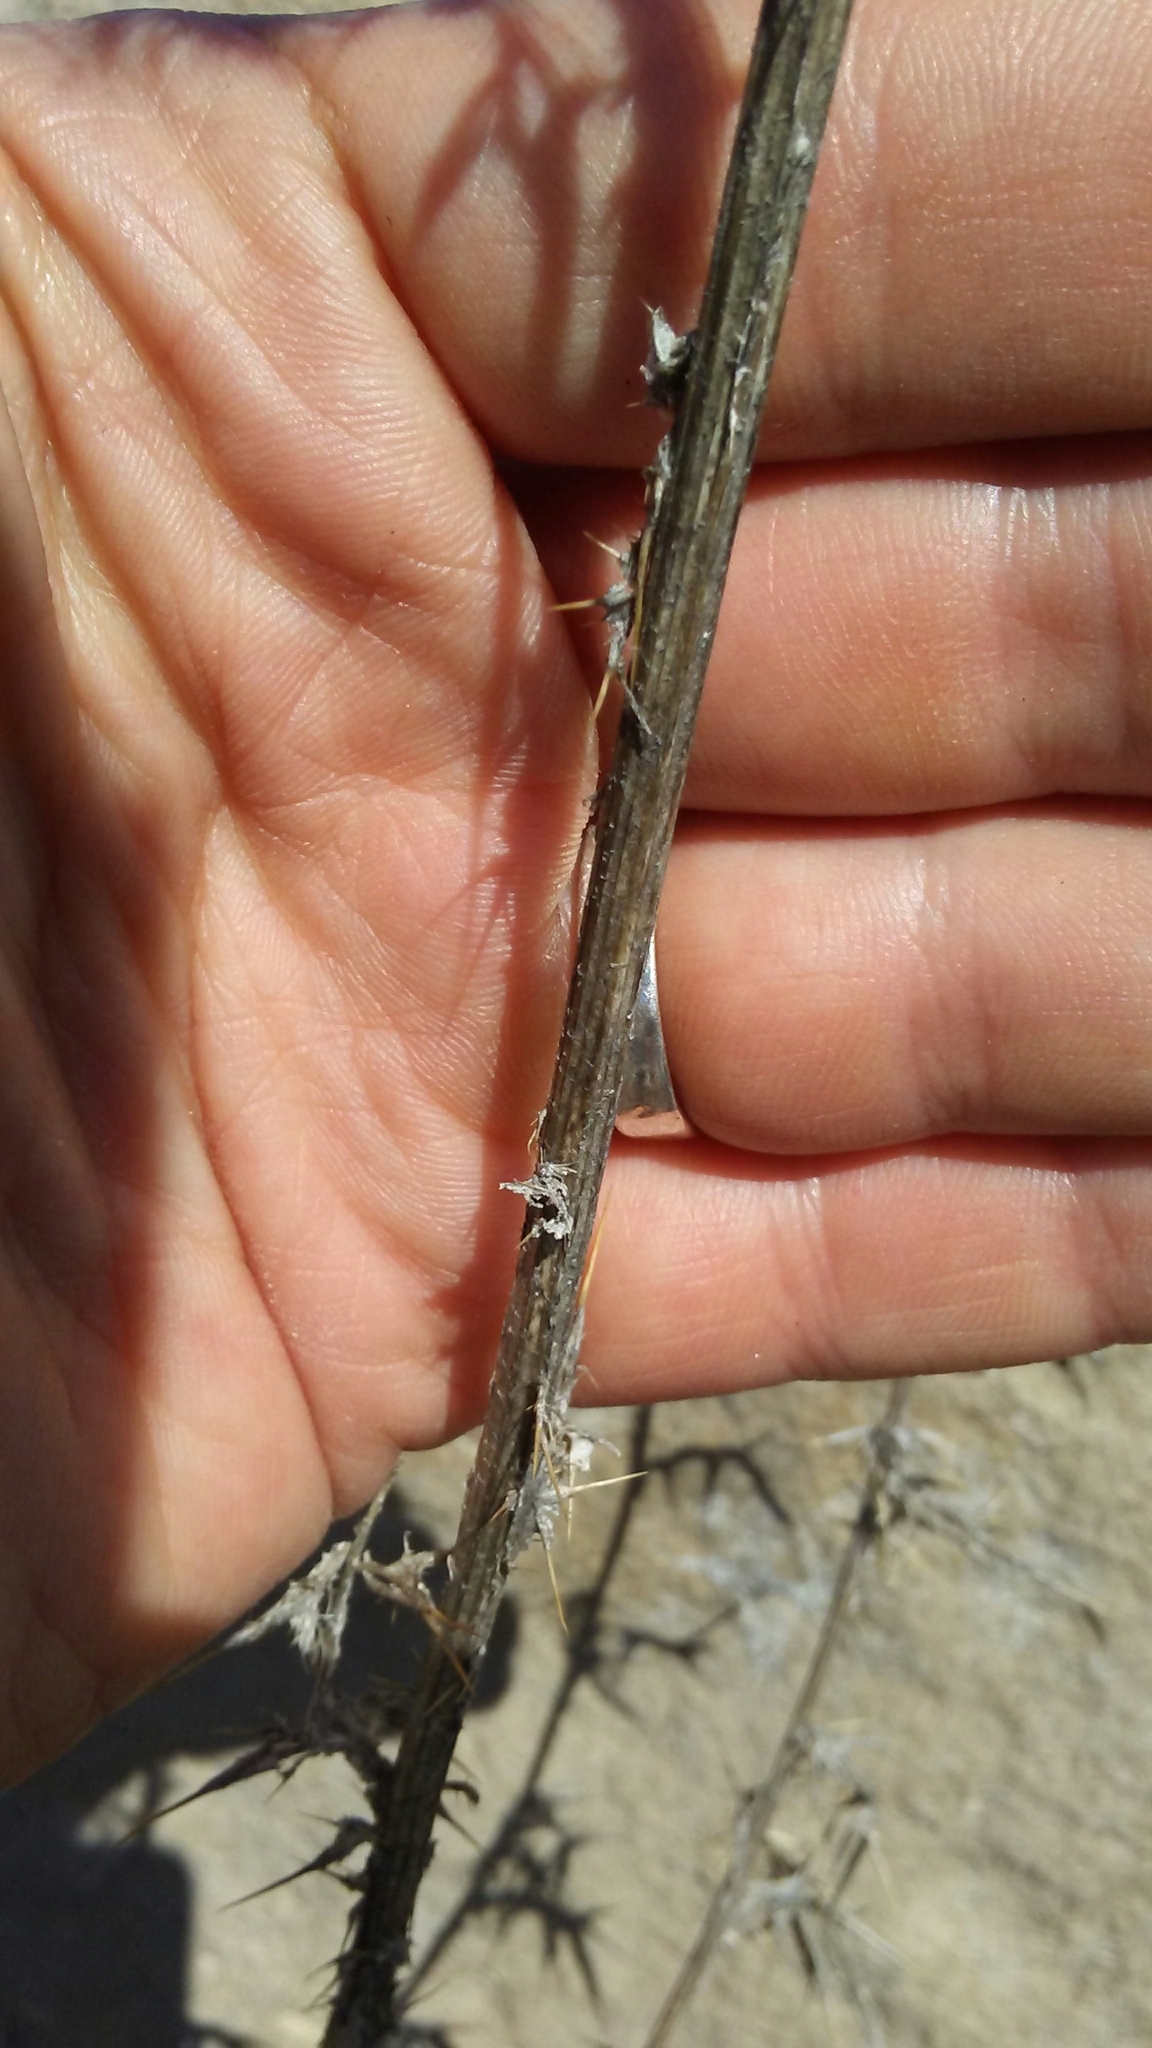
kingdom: Plantae
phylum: Tracheophyta
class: Magnoliopsida
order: Asterales
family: Asteraceae
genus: Cirsium
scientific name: Cirsium vulgare
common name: Bull thistle
